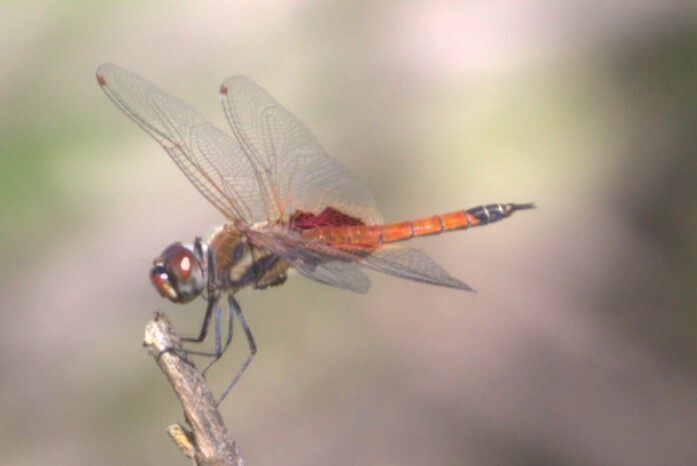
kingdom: Animalia
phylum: Arthropoda
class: Insecta
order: Odonata
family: Libellulidae
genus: Tramea
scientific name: Tramea loewii
